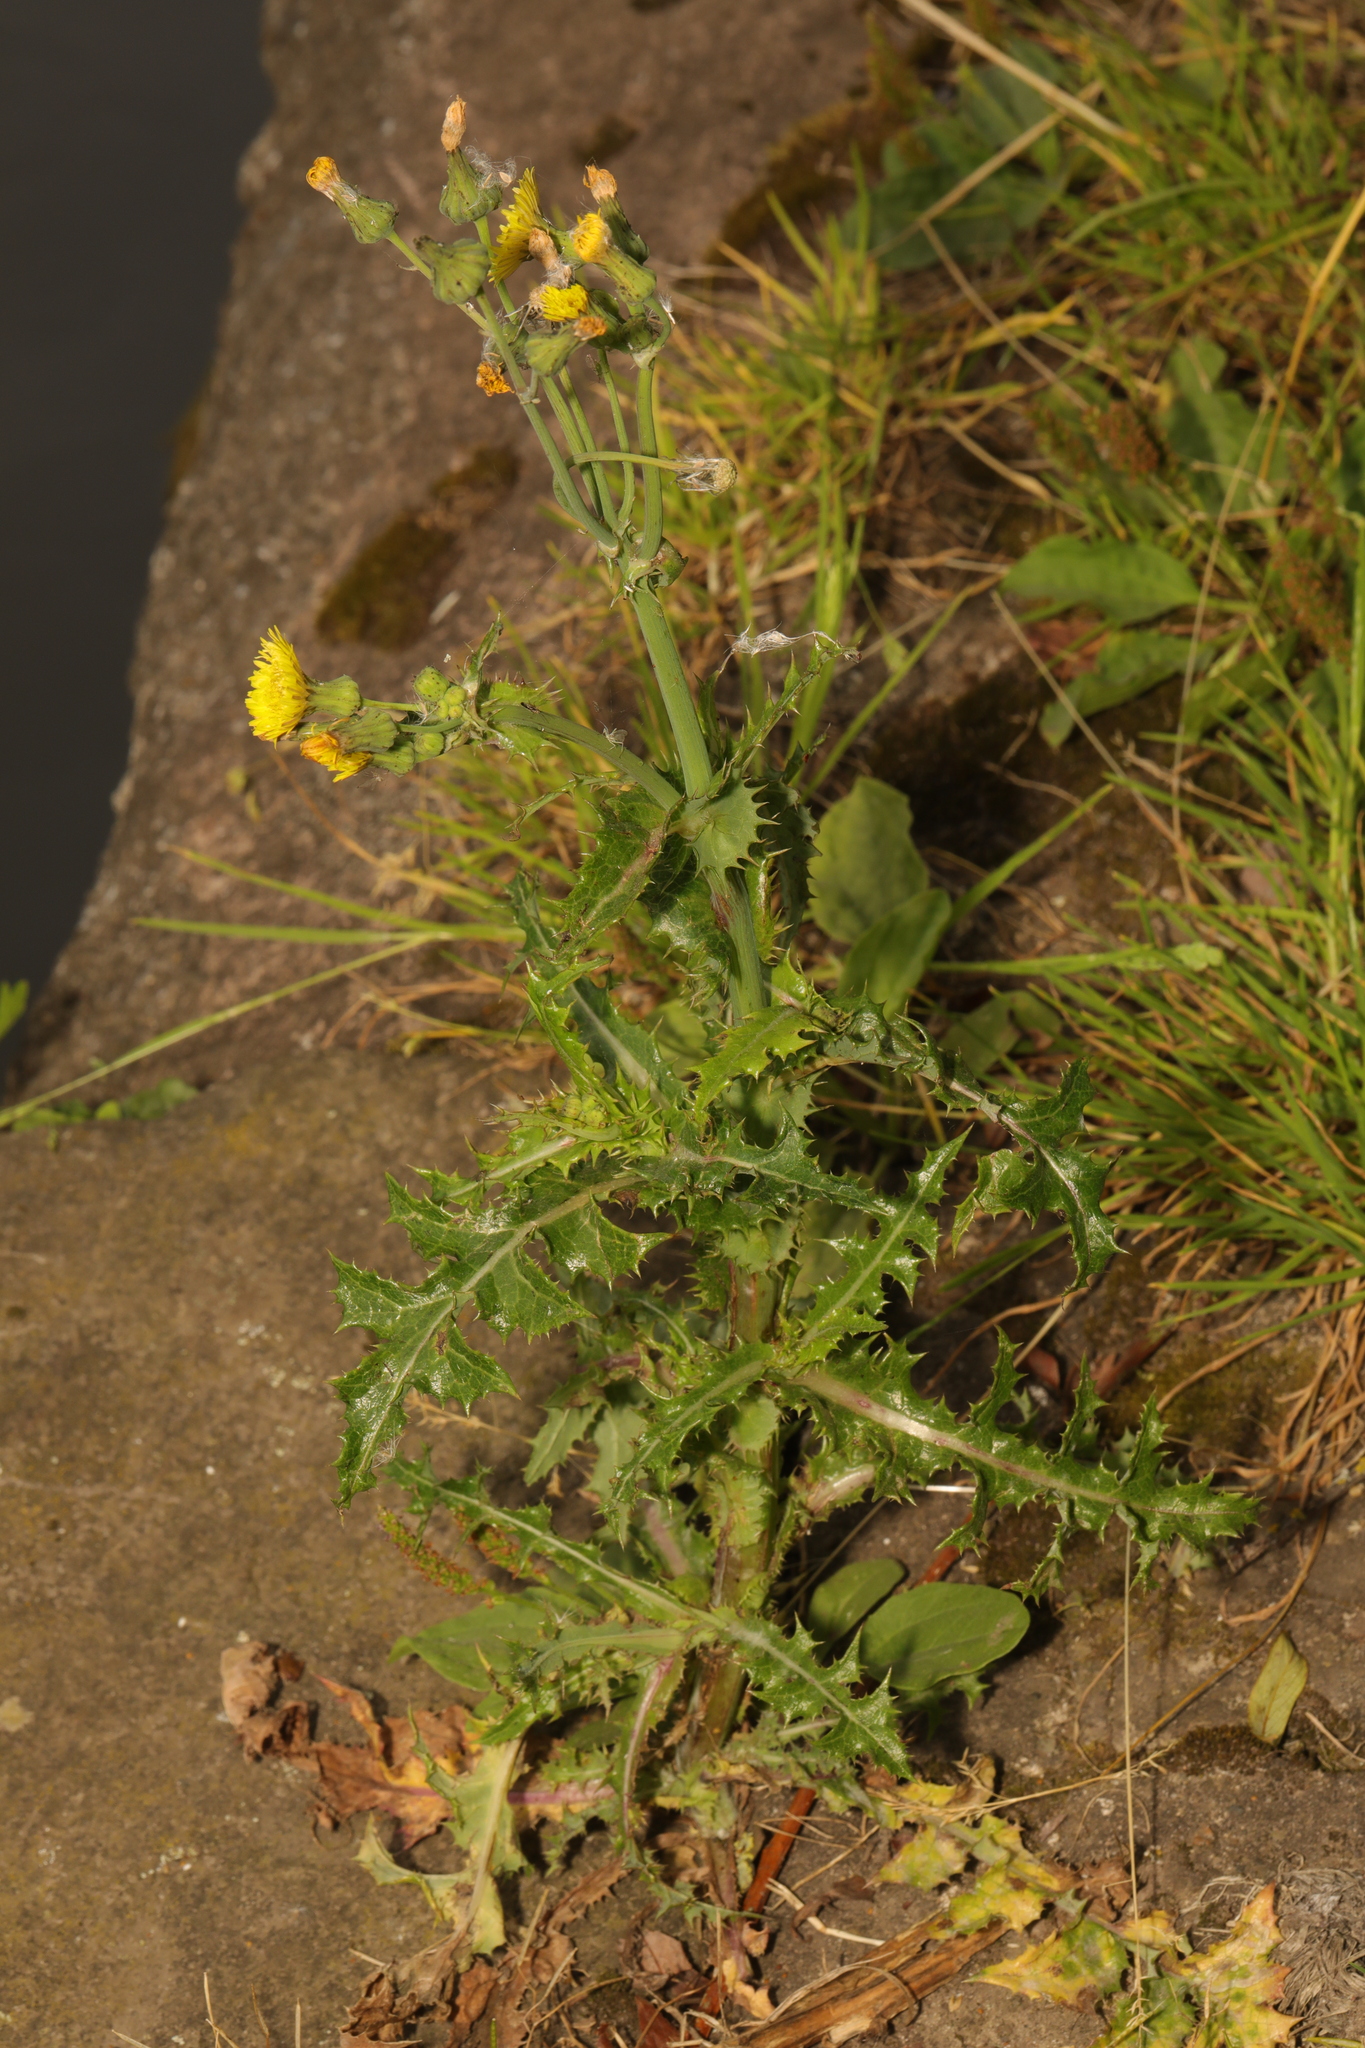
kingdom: Plantae
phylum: Tracheophyta
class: Magnoliopsida
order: Asterales
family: Asteraceae
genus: Sonchus
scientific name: Sonchus asper
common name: Prickly sow-thistle
